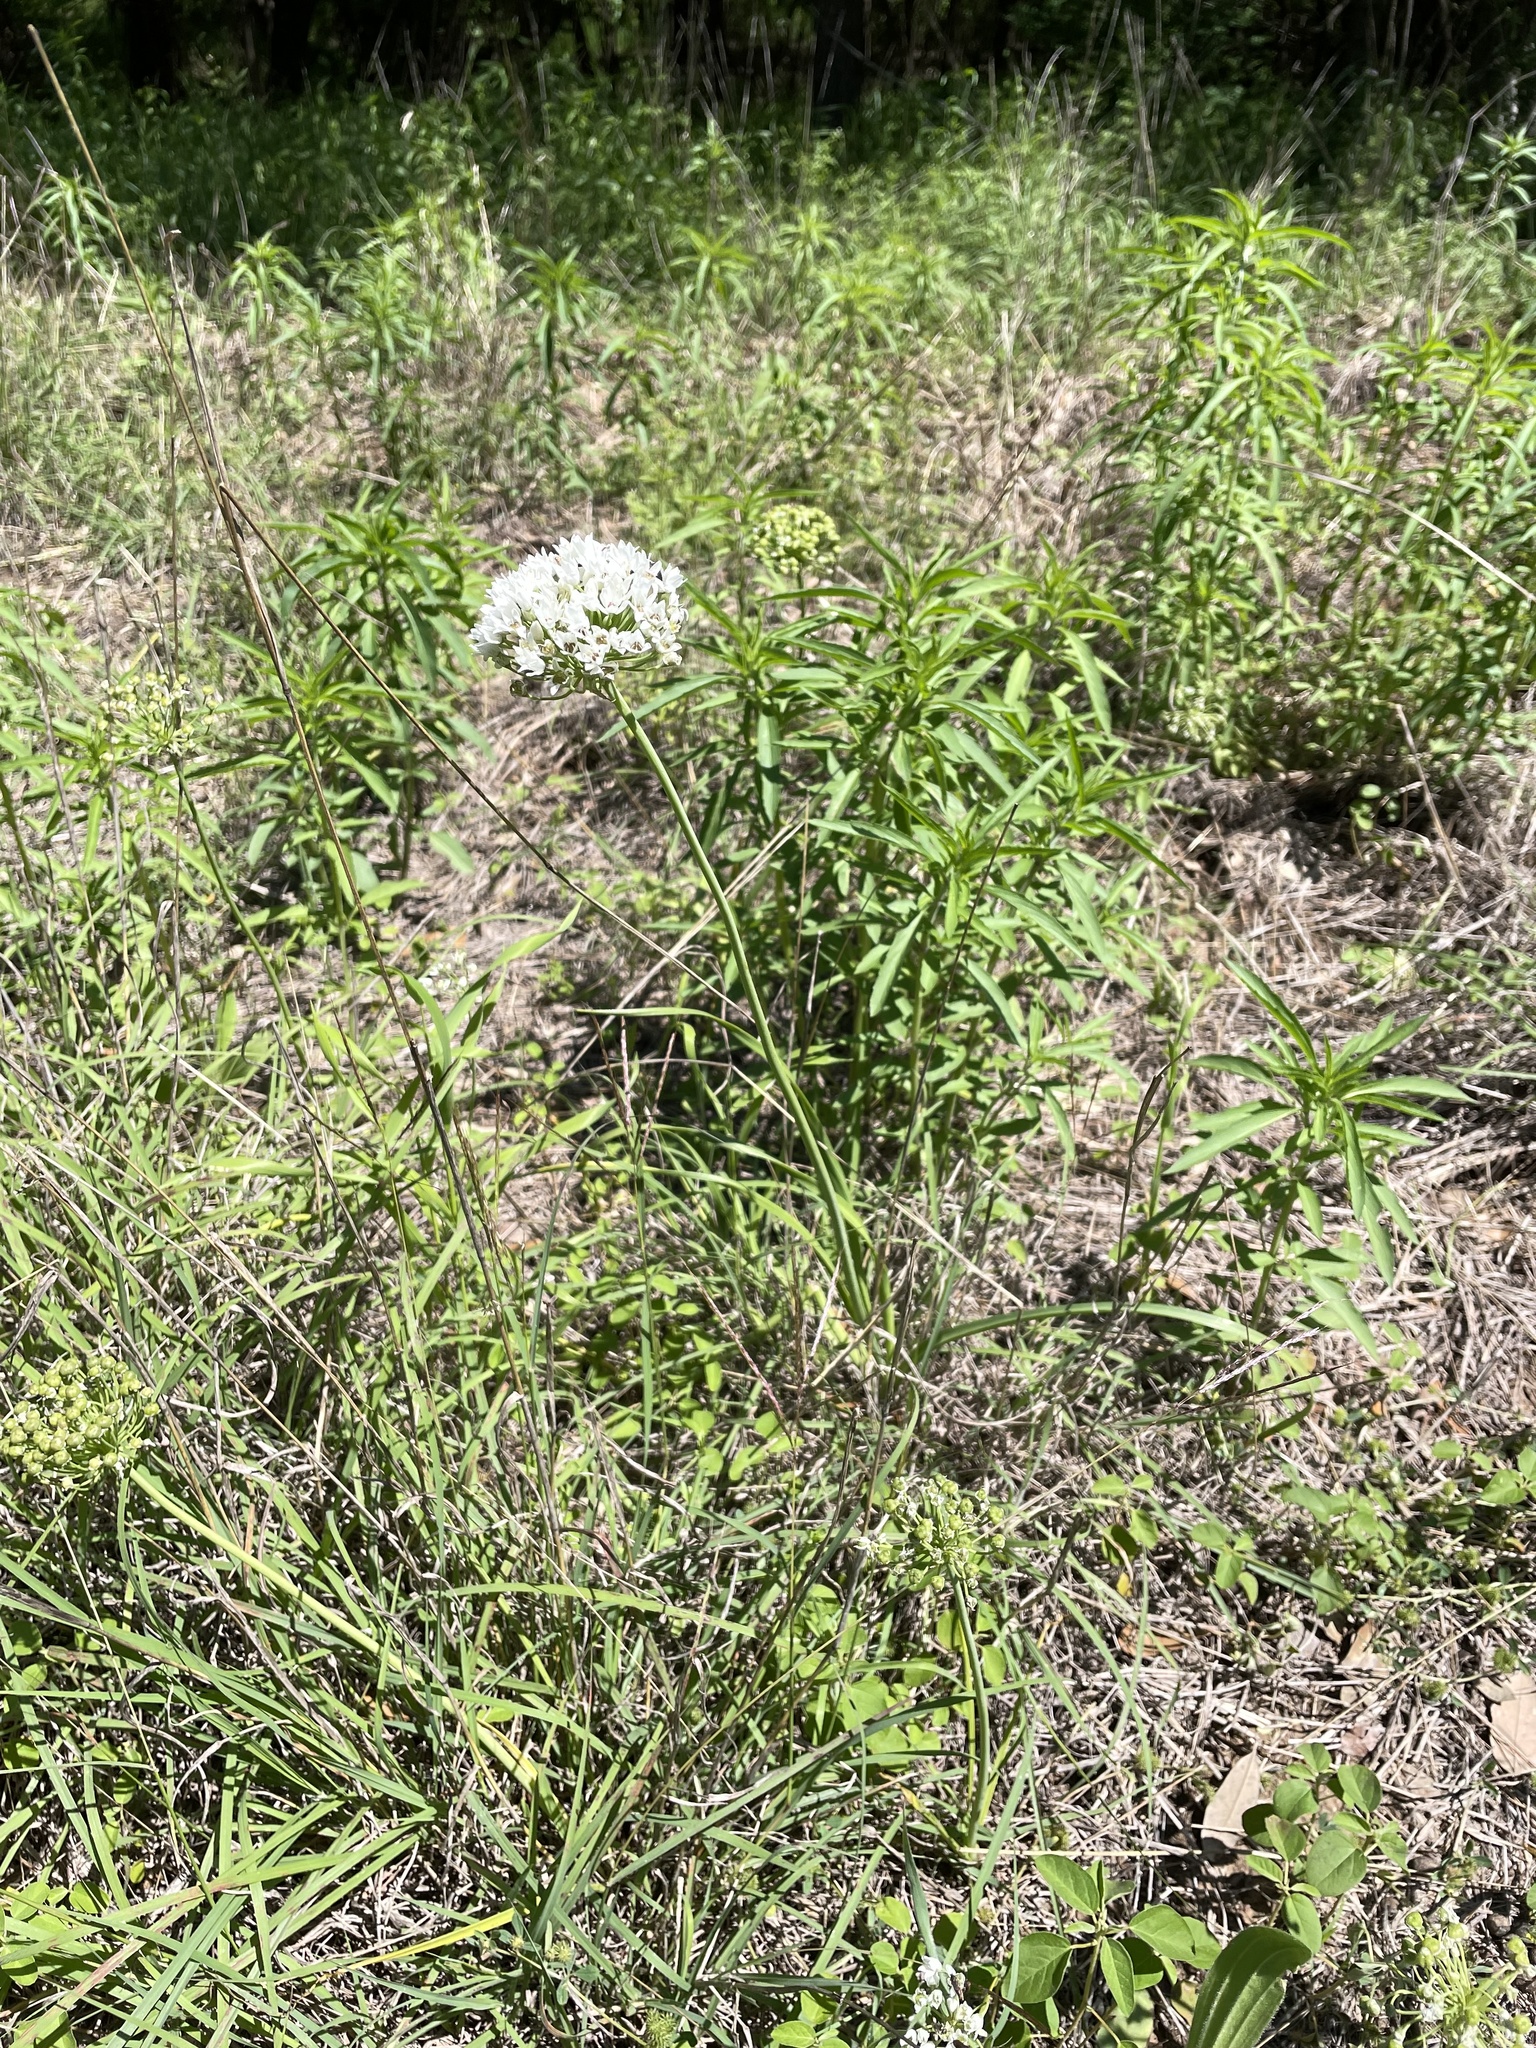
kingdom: Plantae
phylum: Tracheophyta
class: Liliopsida
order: Asparagales
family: Amaryllidaceae
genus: Allium
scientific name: Allium fraseri
